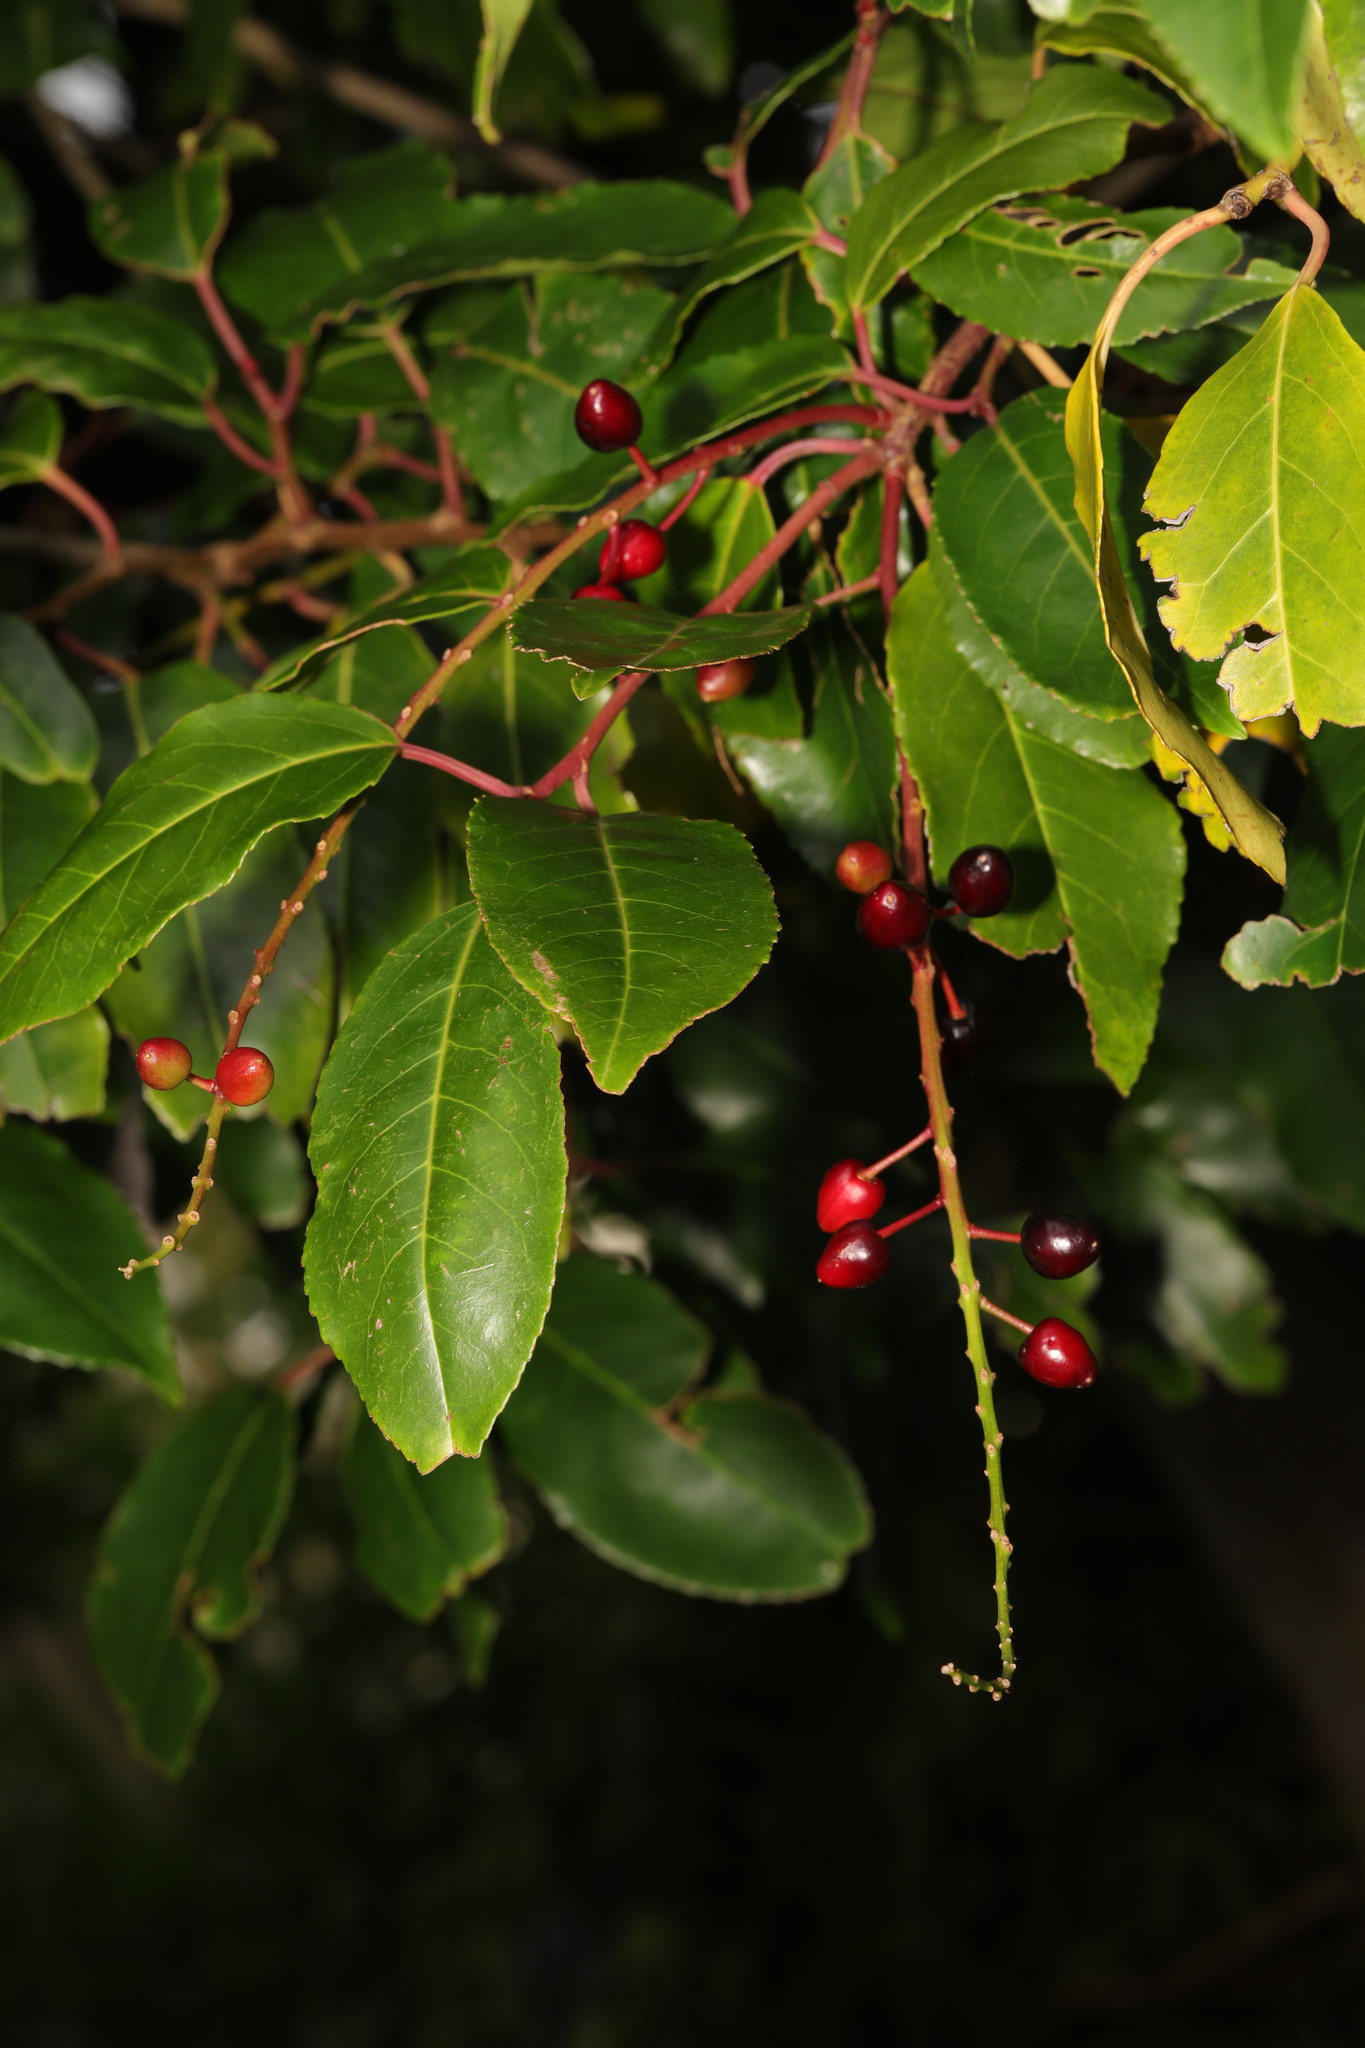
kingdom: Plantae
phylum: Tracheophyta
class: Magnoliopsida
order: Rosales
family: Rosaceae
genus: Prunus
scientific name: Prunus lusitanica
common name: Portugal laurel
